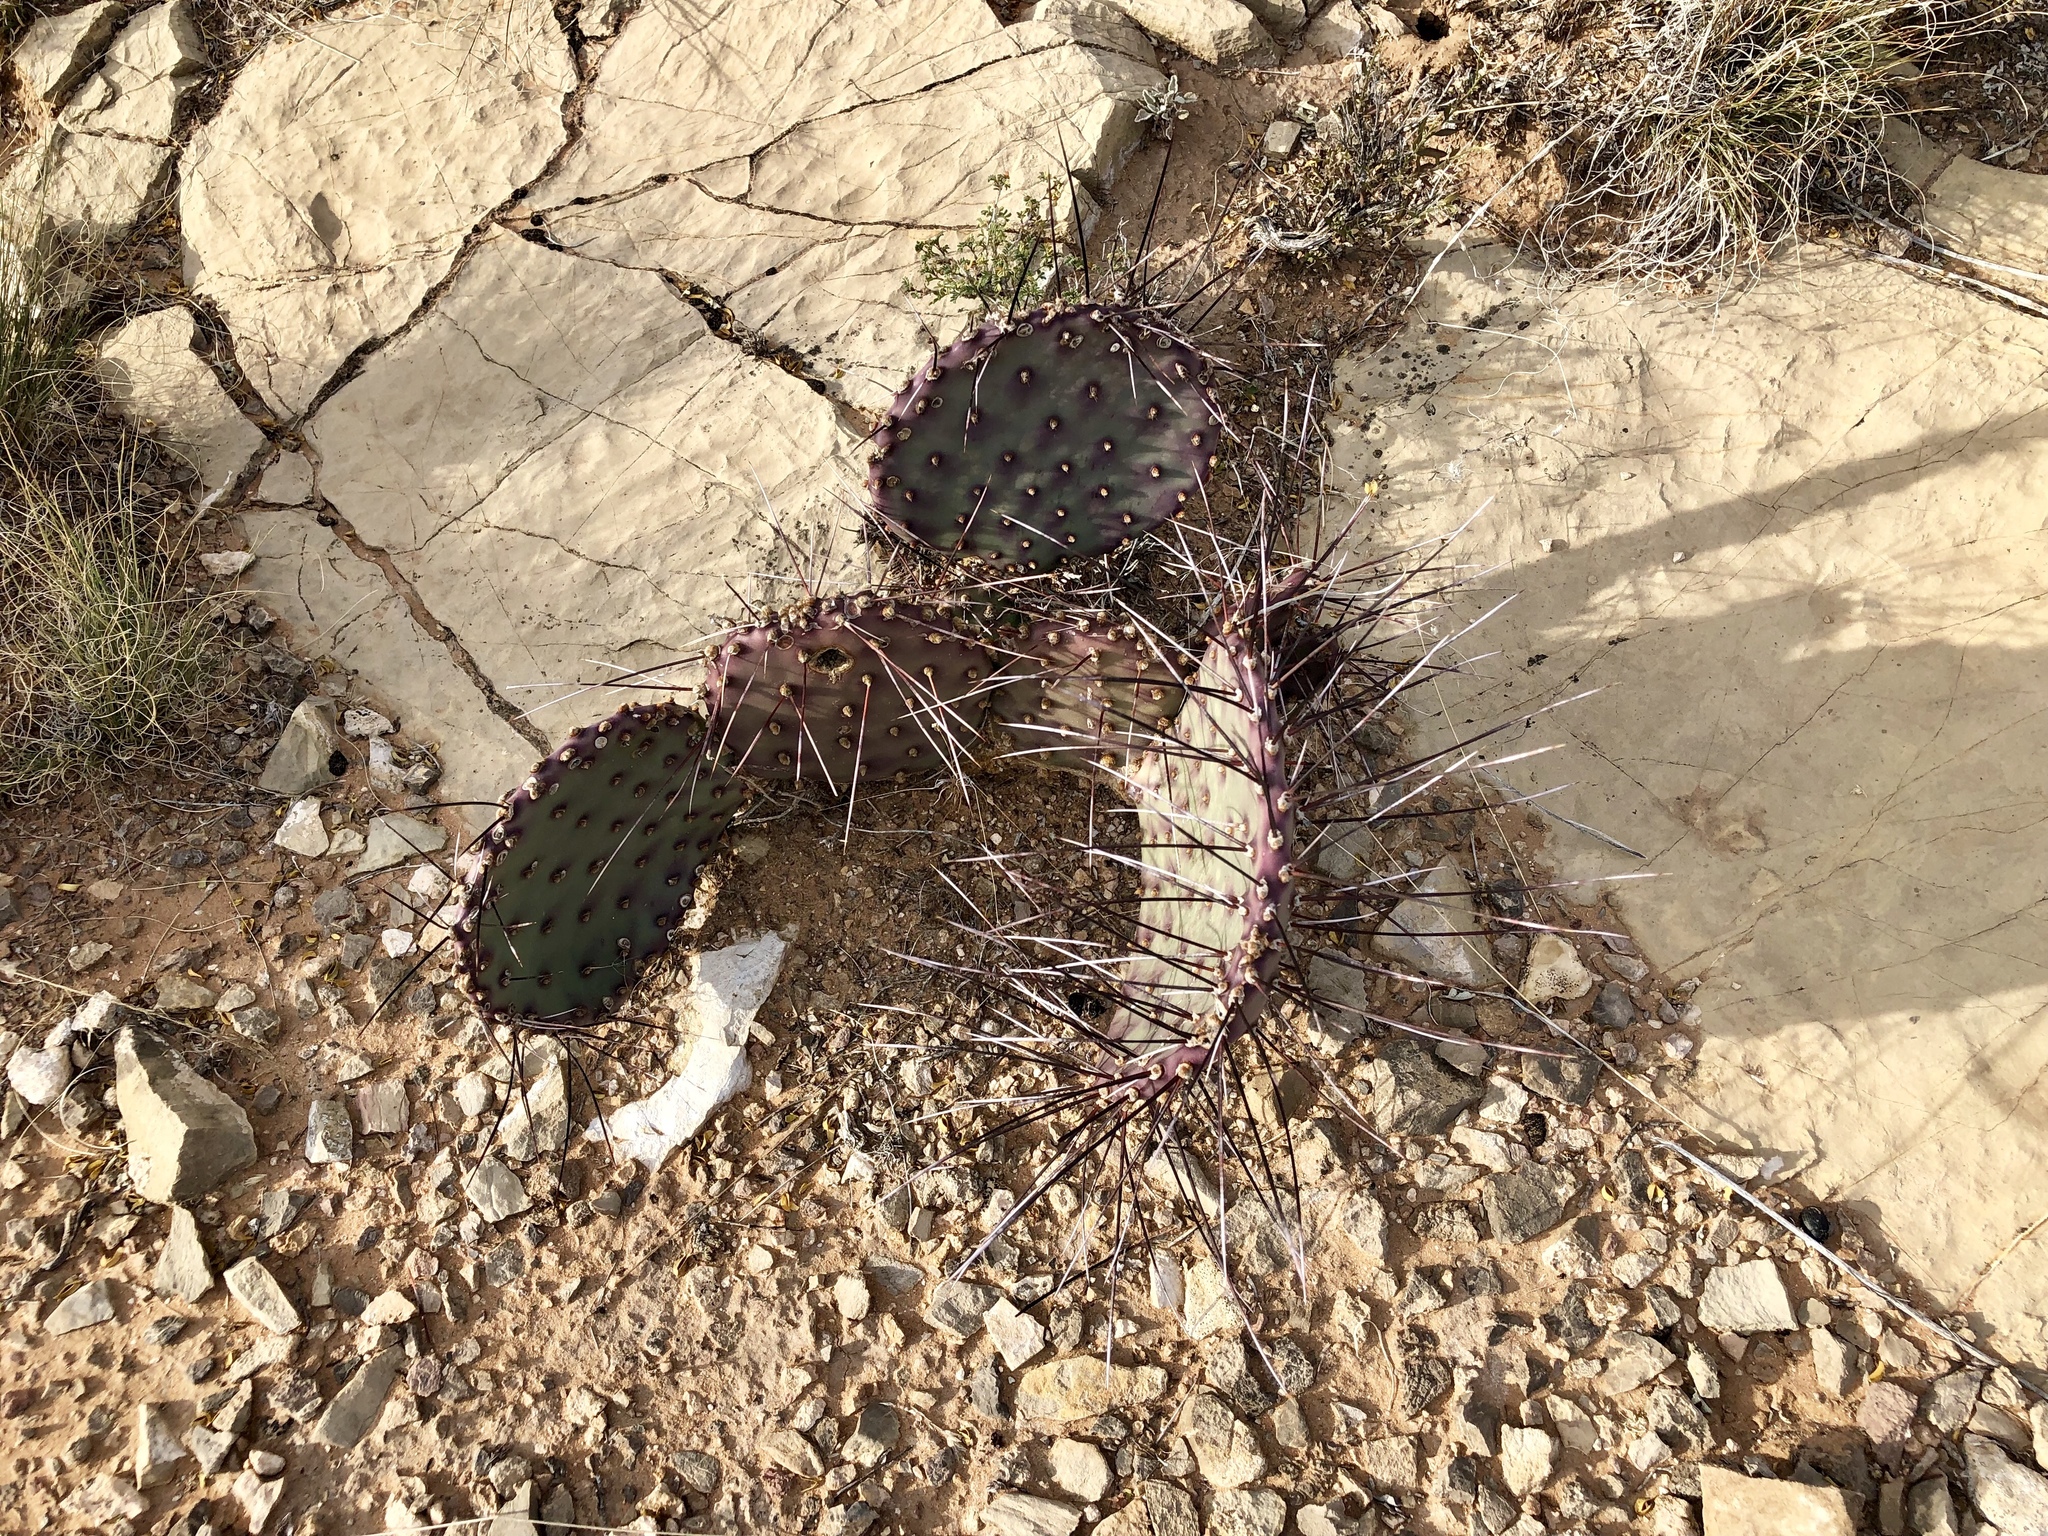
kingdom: Plantae
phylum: Tracheophyta
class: Magnoliopsida
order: Caryophyllales
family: Cactaceae
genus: Opuntia
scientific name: Opuntia macrocentra
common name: Purple prickly-pear
